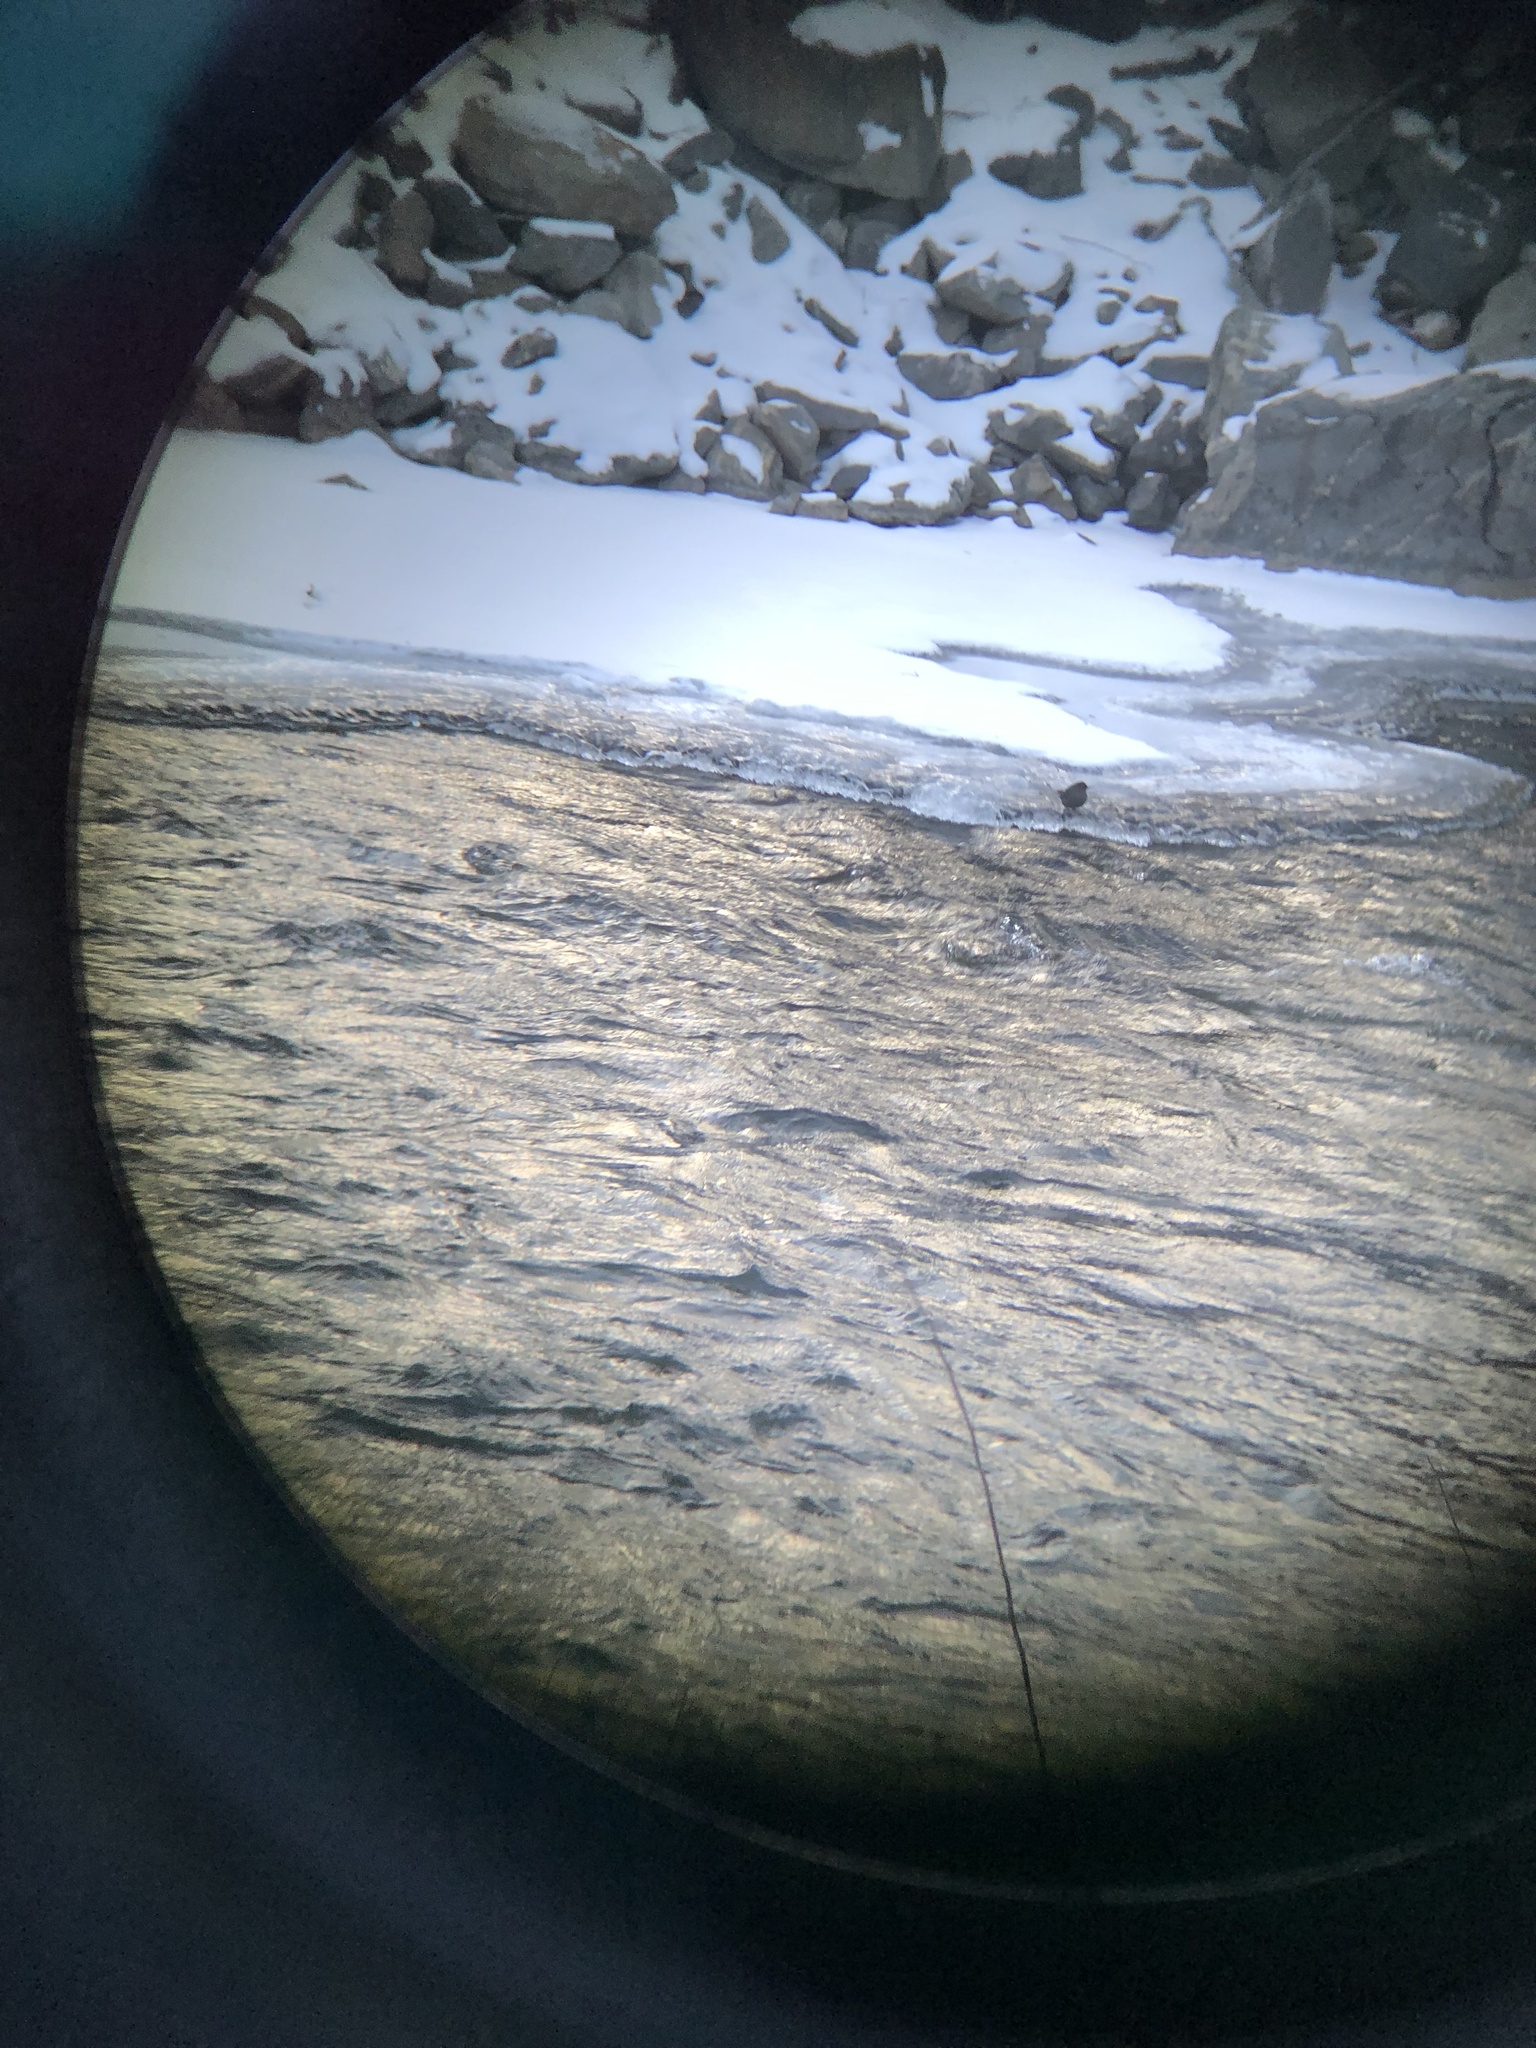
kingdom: Animalia
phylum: Chordata
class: Aves
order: Passeriformes
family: Cinclidae
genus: Cinclus
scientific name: Cinclus mexicanus
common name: American dipper
